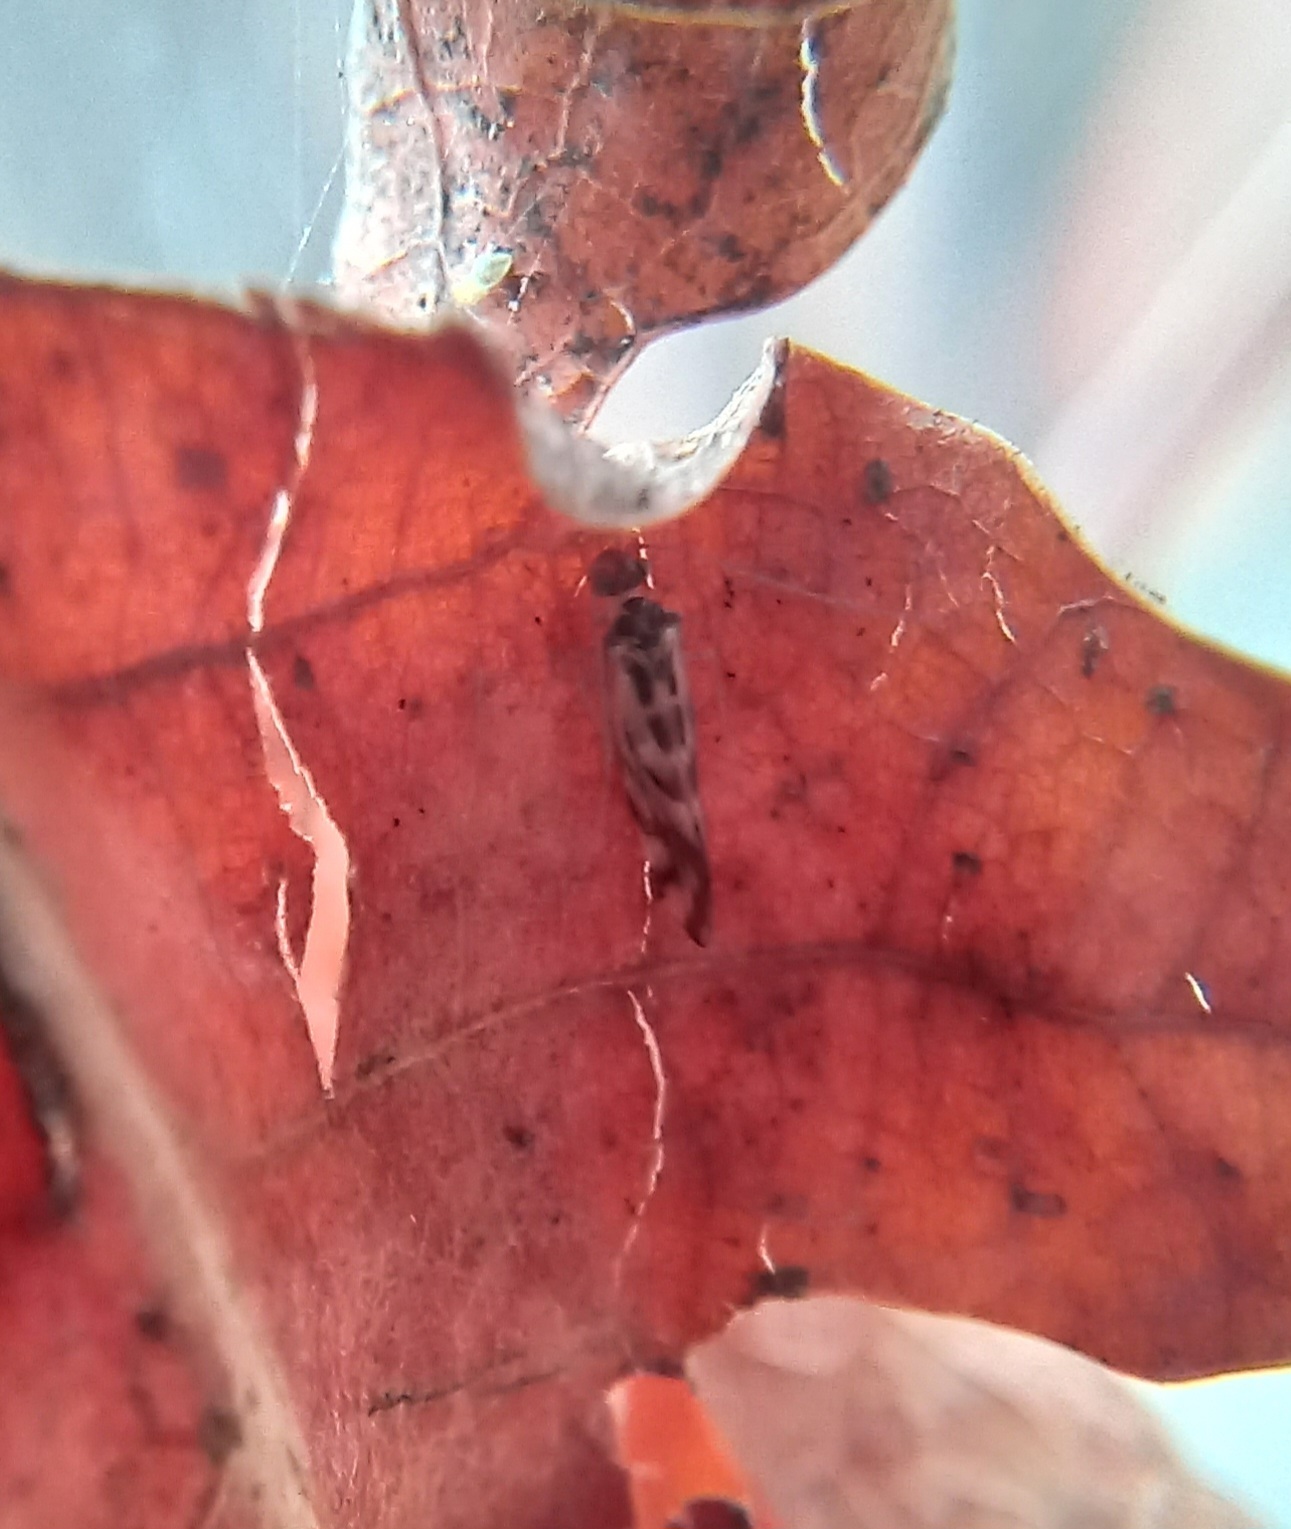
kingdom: Animalia
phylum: Arthropoda
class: Insecta
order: Psocodea
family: Stenopsocidae
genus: Graphopsocus
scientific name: Graphopsocus cruciatus
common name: Lizard bark louse
